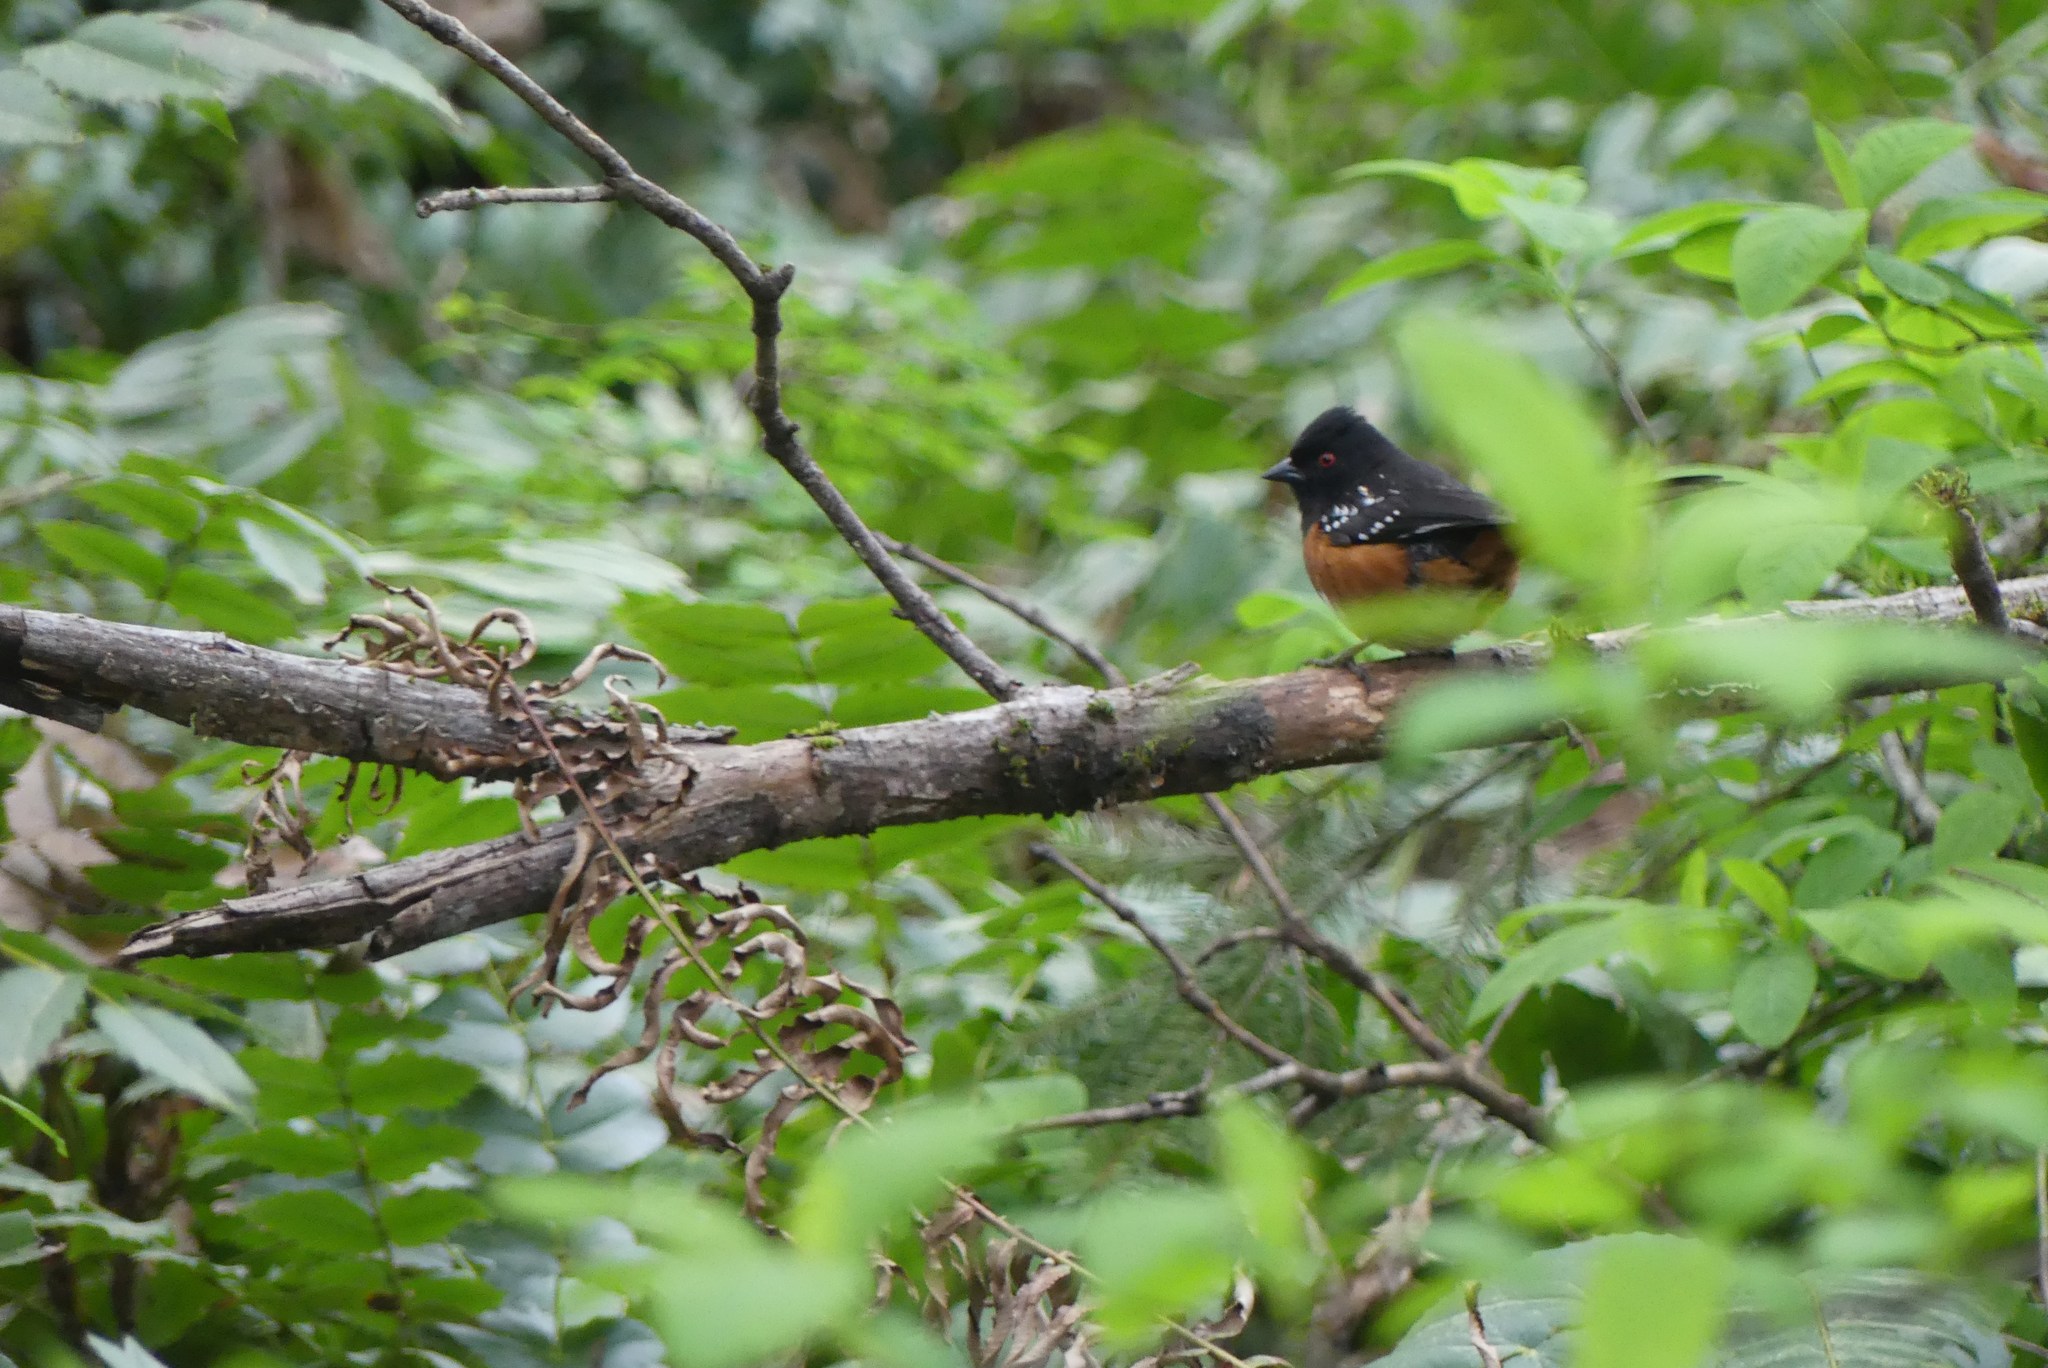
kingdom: Animalia
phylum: Chordata
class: Aves
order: Passeriformes
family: Passerellidae
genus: Pipilo
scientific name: Pipilo maculatus
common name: Spotted towhee
